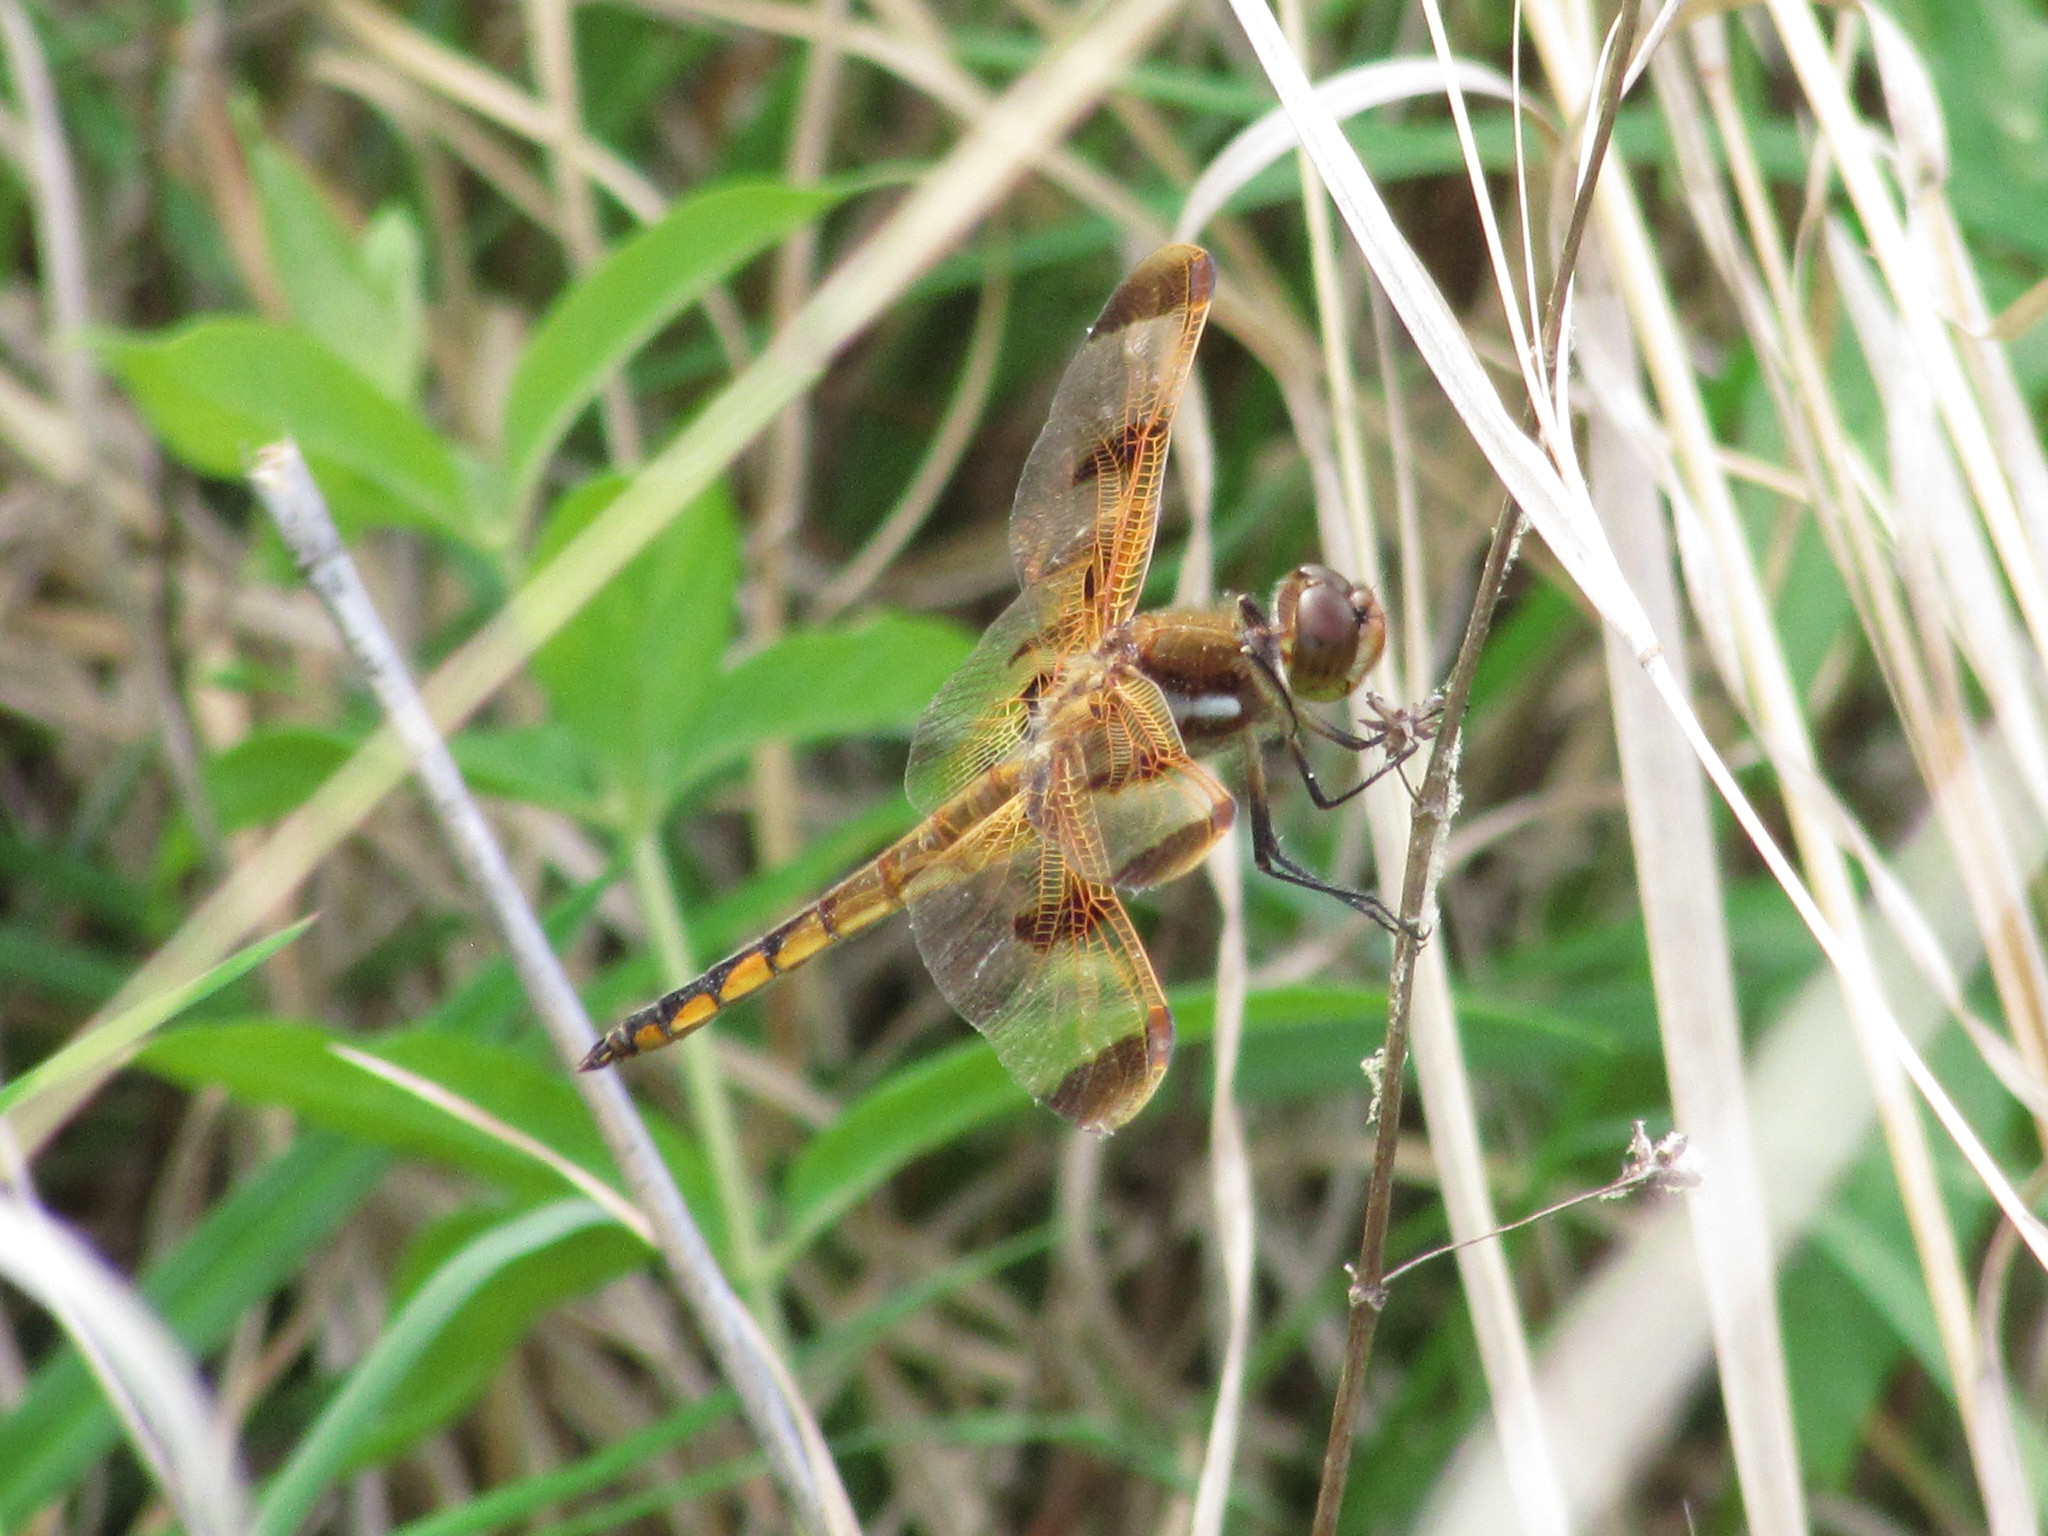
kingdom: Animalia
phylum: Arthropoda
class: Insecta
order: Odonata
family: Libellulidae
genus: Libellula
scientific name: Libellula semifasciata
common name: Painted skimmer
